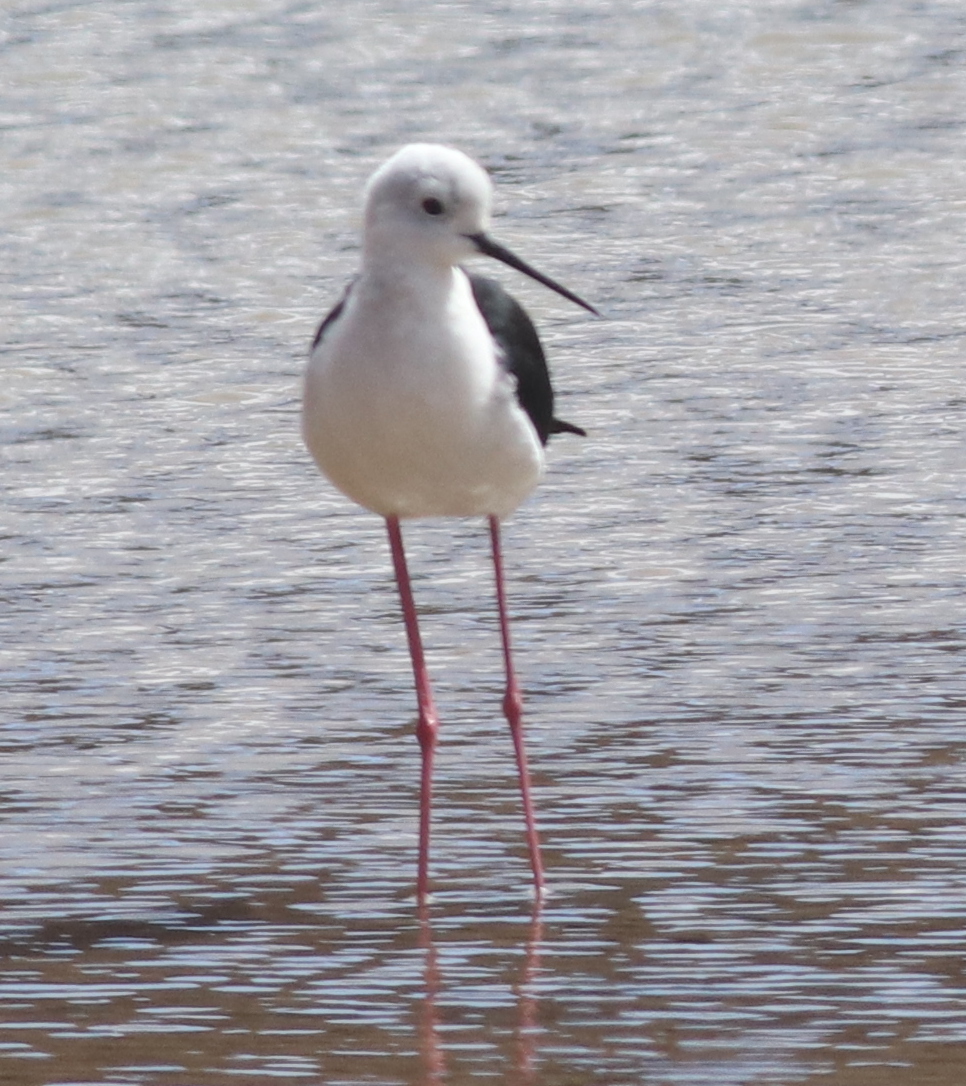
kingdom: Animalia
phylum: Chordata
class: Aves
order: Charadriiformes
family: Recurvirostridae
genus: Himantopus
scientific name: Himantopus himantopus
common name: Black-winged stilt
